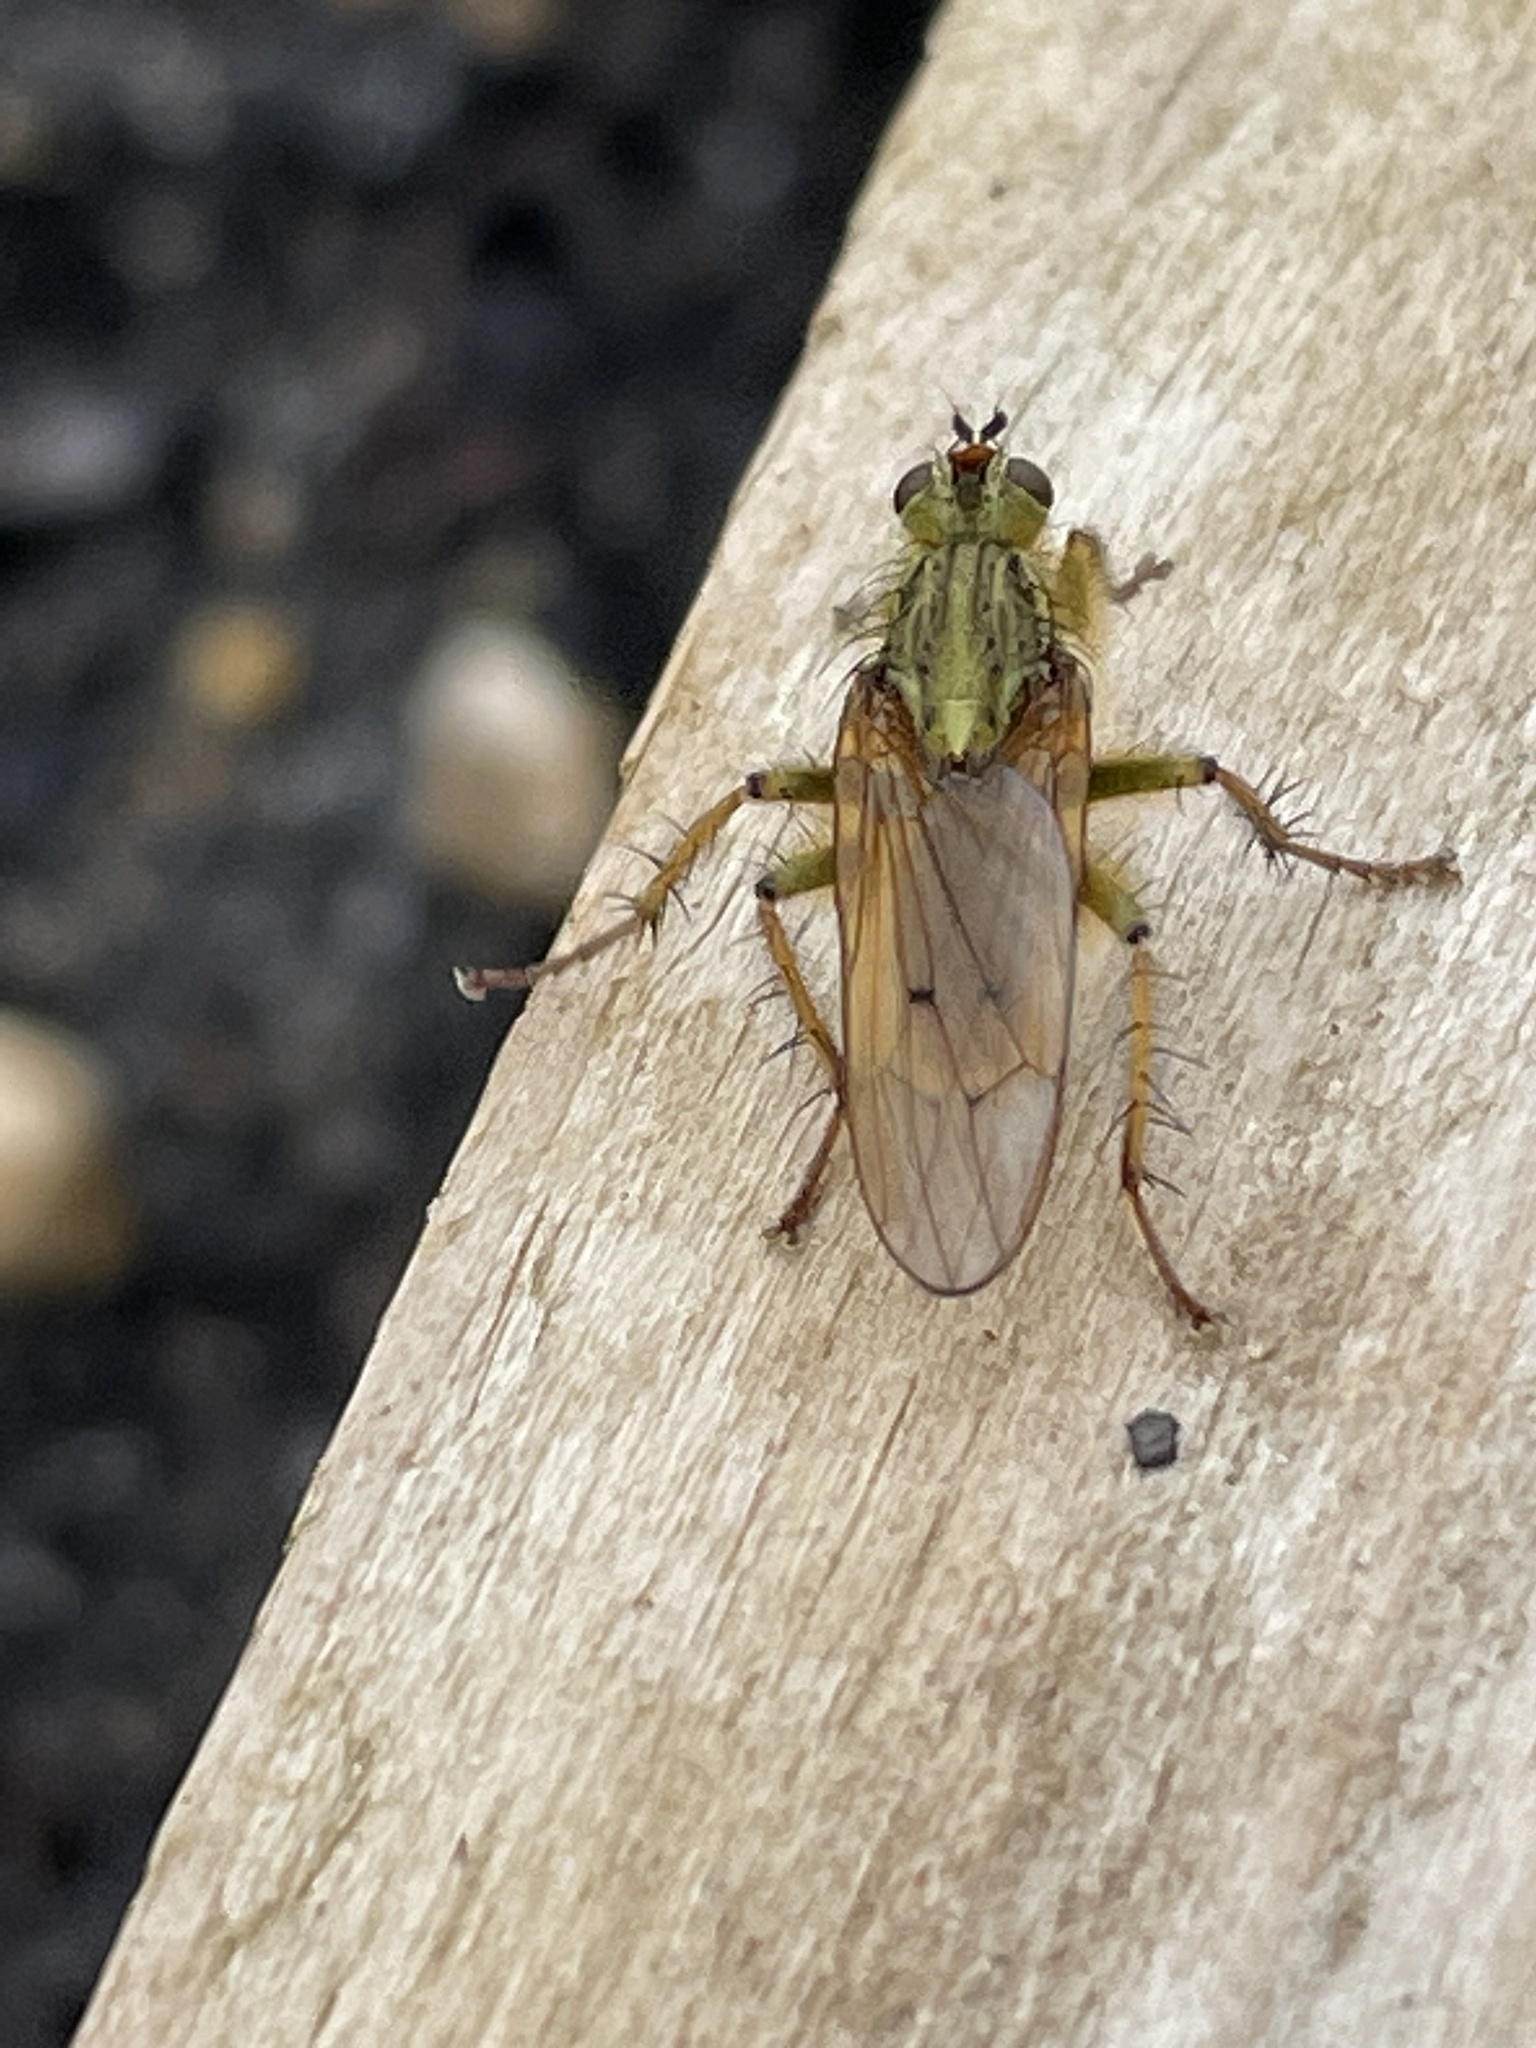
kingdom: Animalia
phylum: Arthropoda
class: Insecta
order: Diptera
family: Scathophagidae
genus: Scathophaga
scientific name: Scathophaga stercoraria
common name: Yellow dung fly
